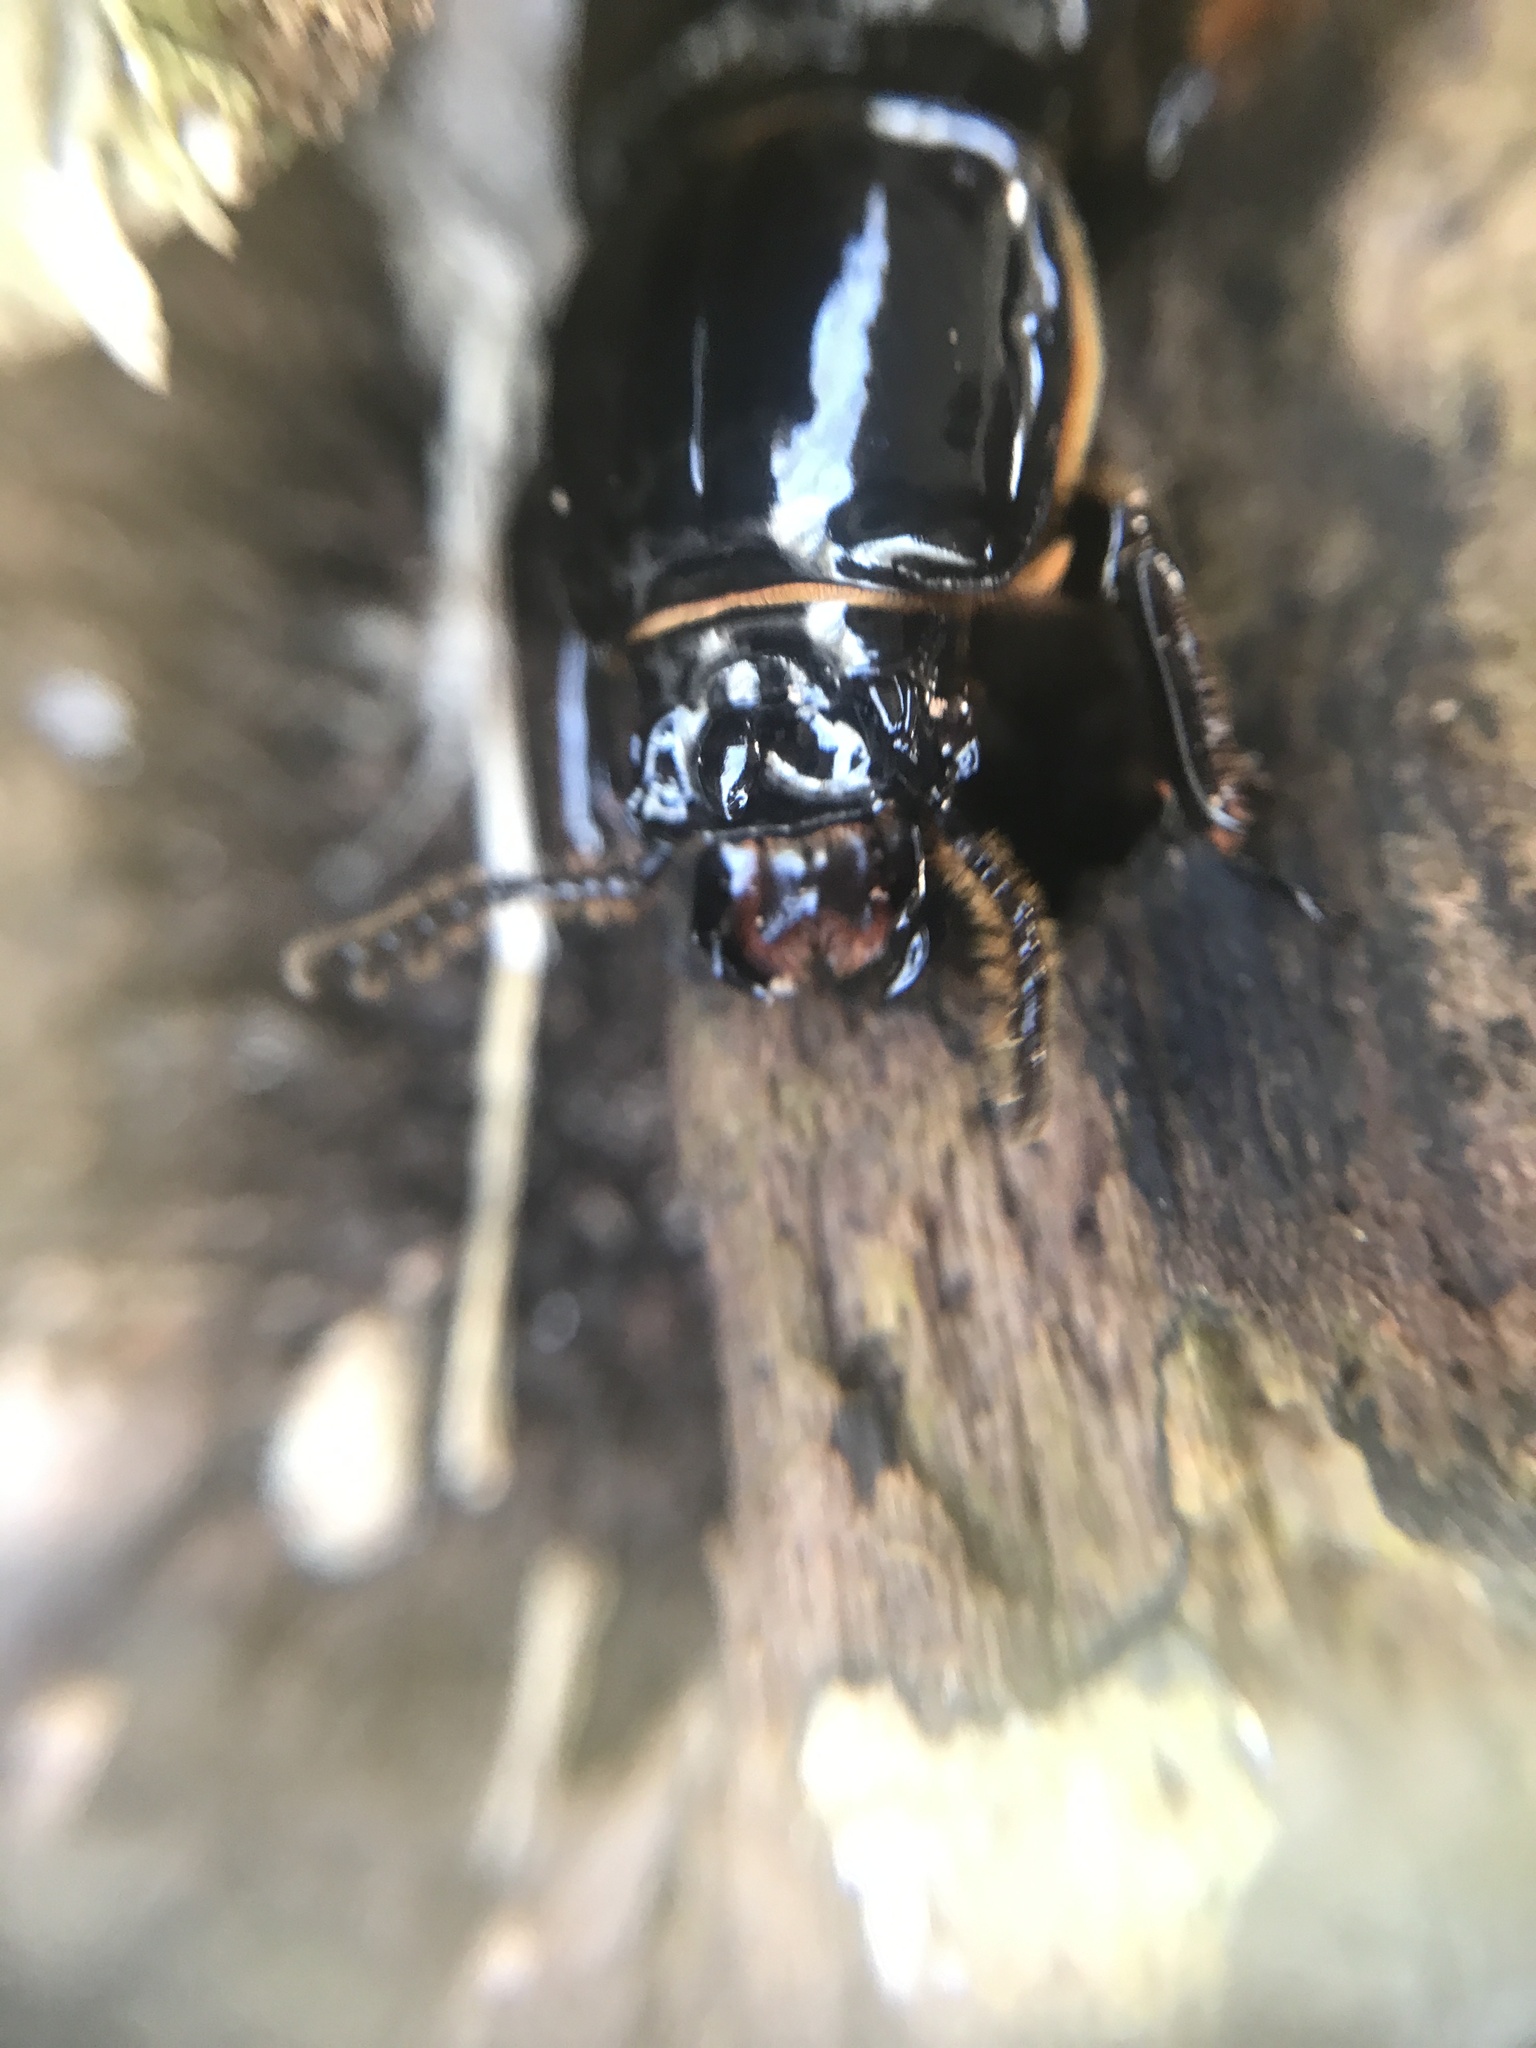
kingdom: Animalia
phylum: Arthropoda
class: Insecta
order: Coleoptera
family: Passalidae
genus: Odontotaenius
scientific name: Odontotaenius disjunctus
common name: Patent leather beetle
